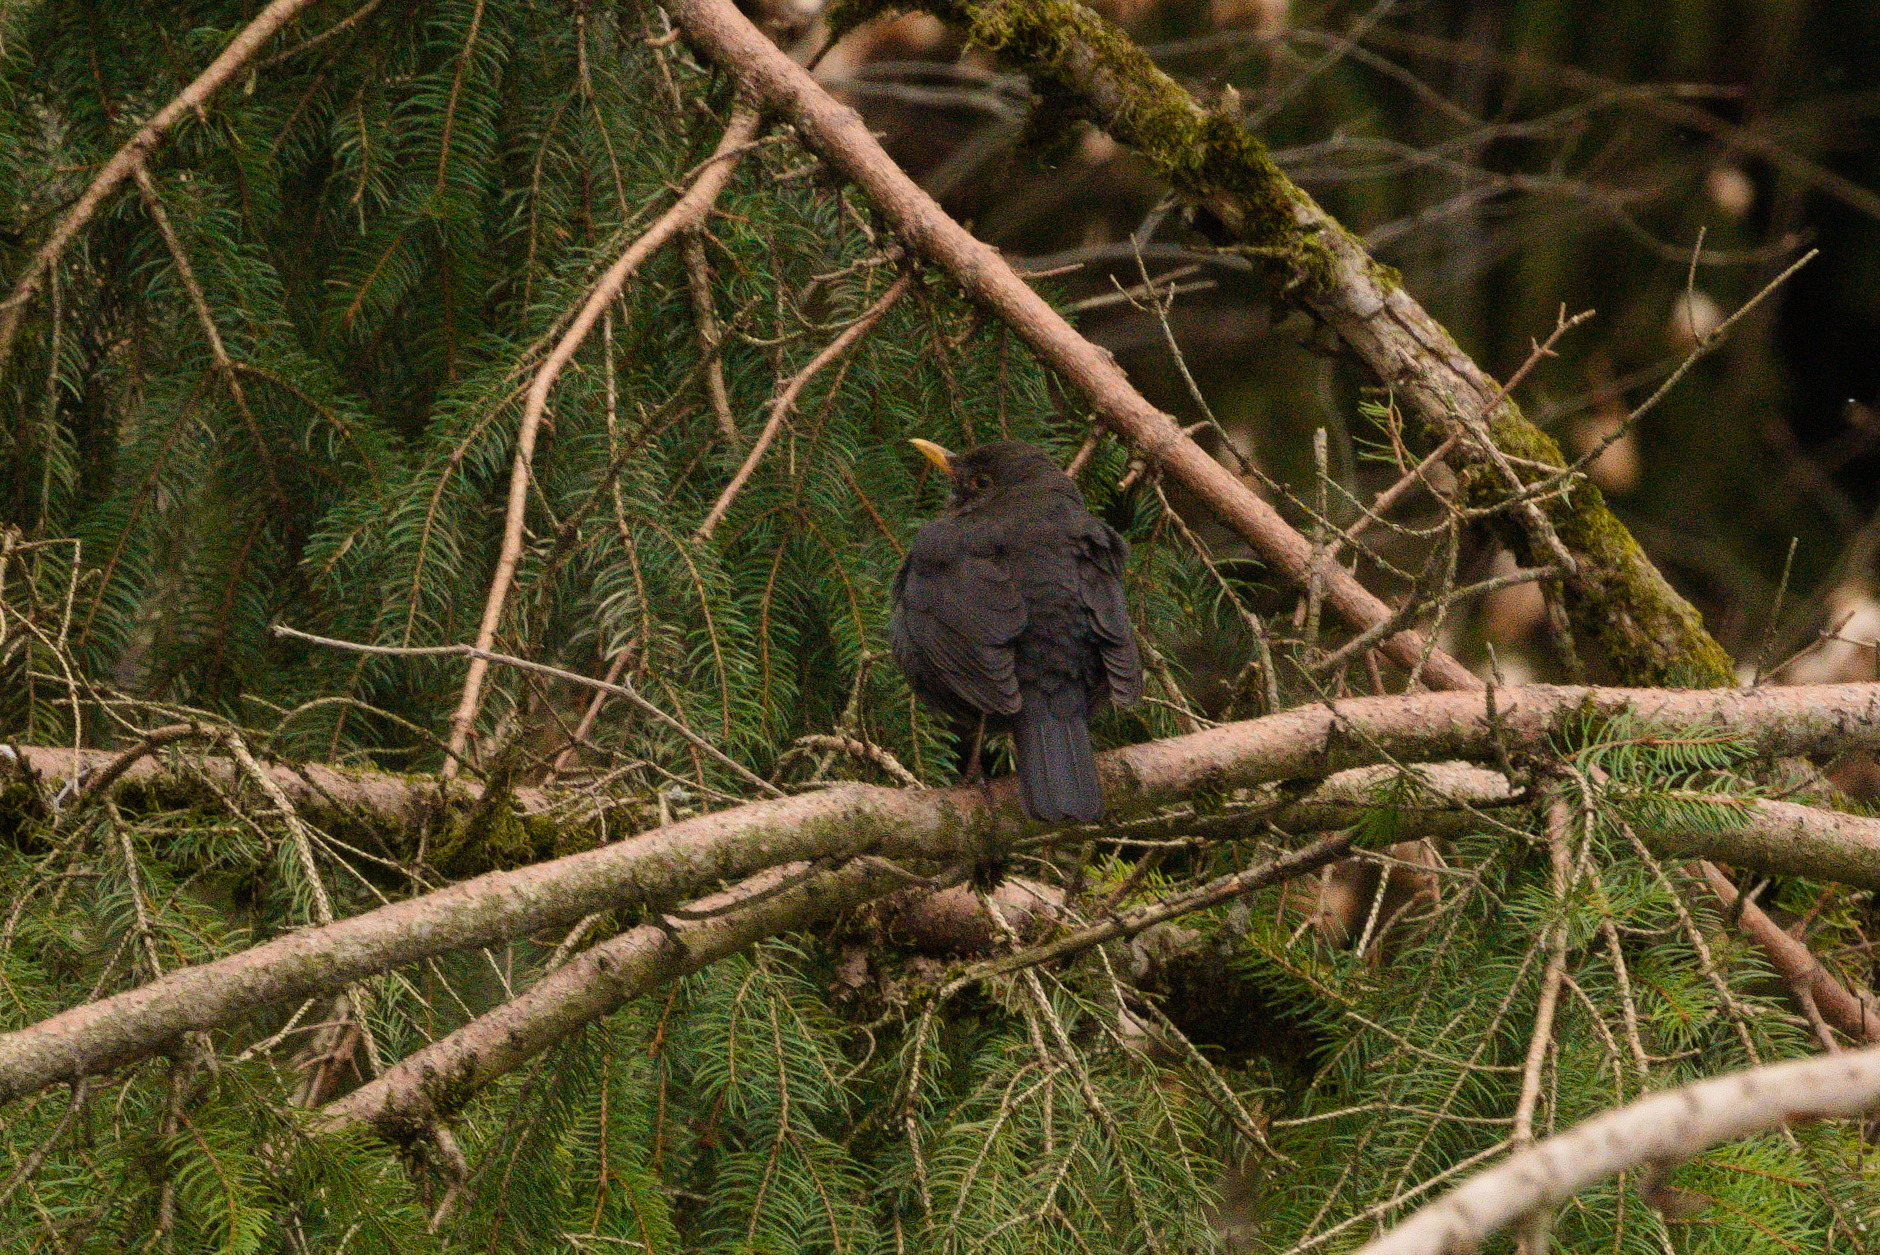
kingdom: Animalia
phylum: Chordata
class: Aves
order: Passeriformes
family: Turdidae
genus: Turdus
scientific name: Turdus merula
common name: Common blackbird
